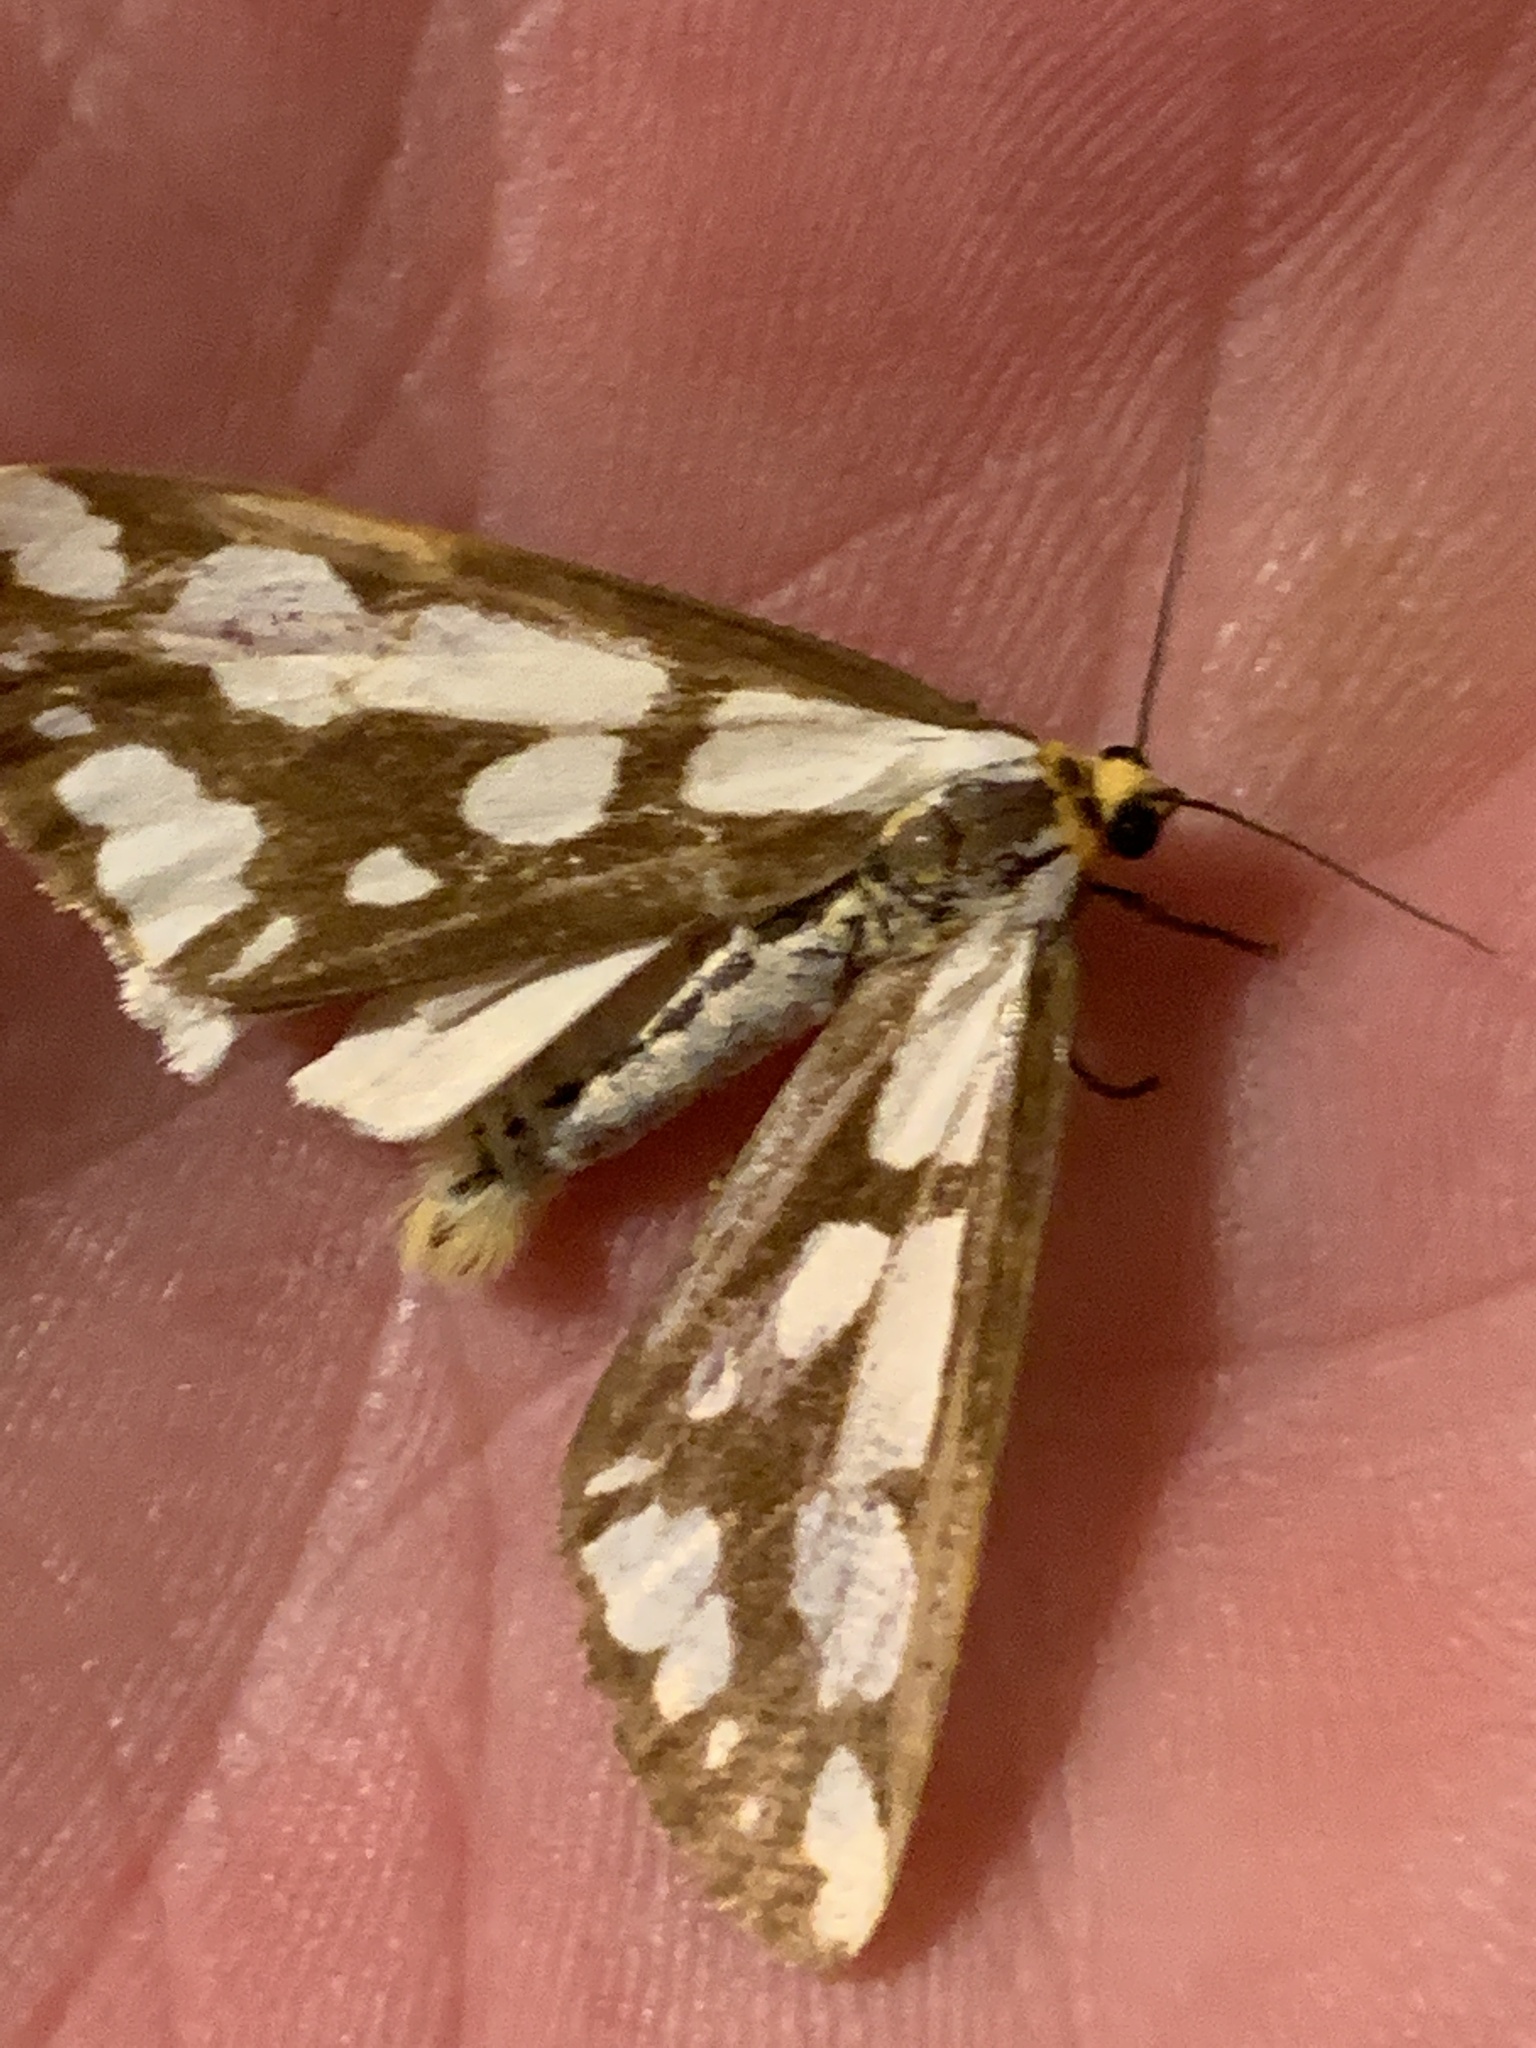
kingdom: Animalia
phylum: Arthropoda
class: Insecta
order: Lepidoptera
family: Erebidae
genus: Haploa
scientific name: Haploa confusa
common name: Confused haploa moth
